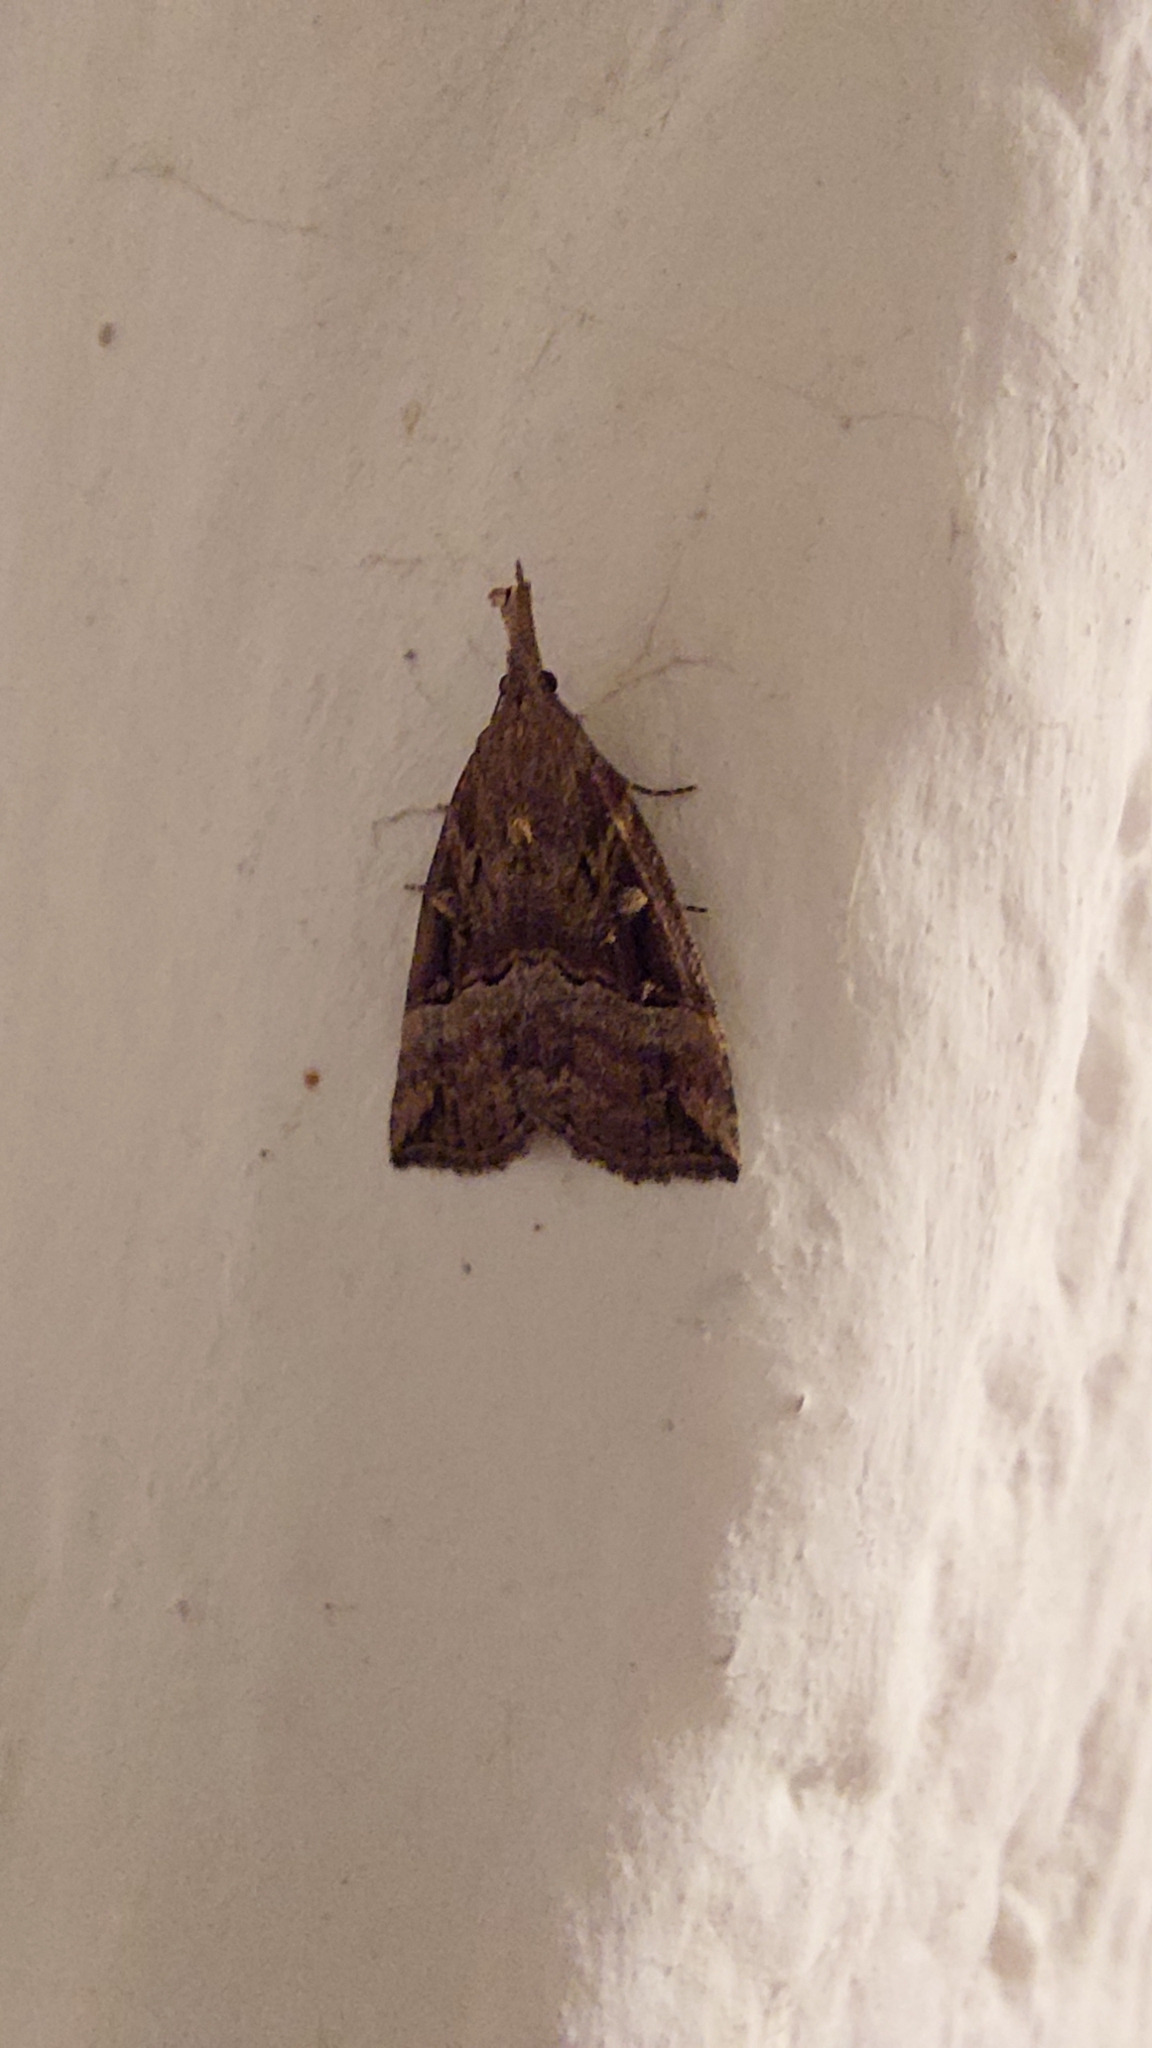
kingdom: Animalia
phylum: Arthropoda
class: Insecta
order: Lepidoptera
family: Erebidae
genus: Hypena
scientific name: Hypena rostralis
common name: Buttoned snout
